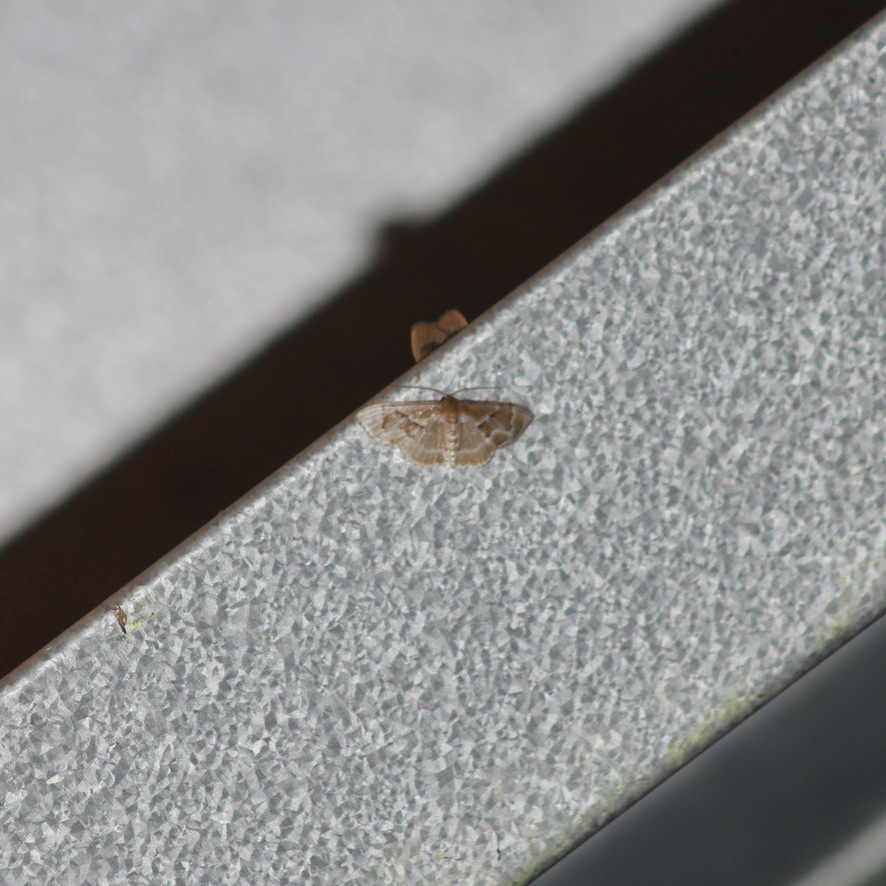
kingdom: Animalia
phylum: Arthropoda
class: Insecta
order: Lepidoptera
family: Geometridae
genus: Leptostales
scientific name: Leptostales adela
